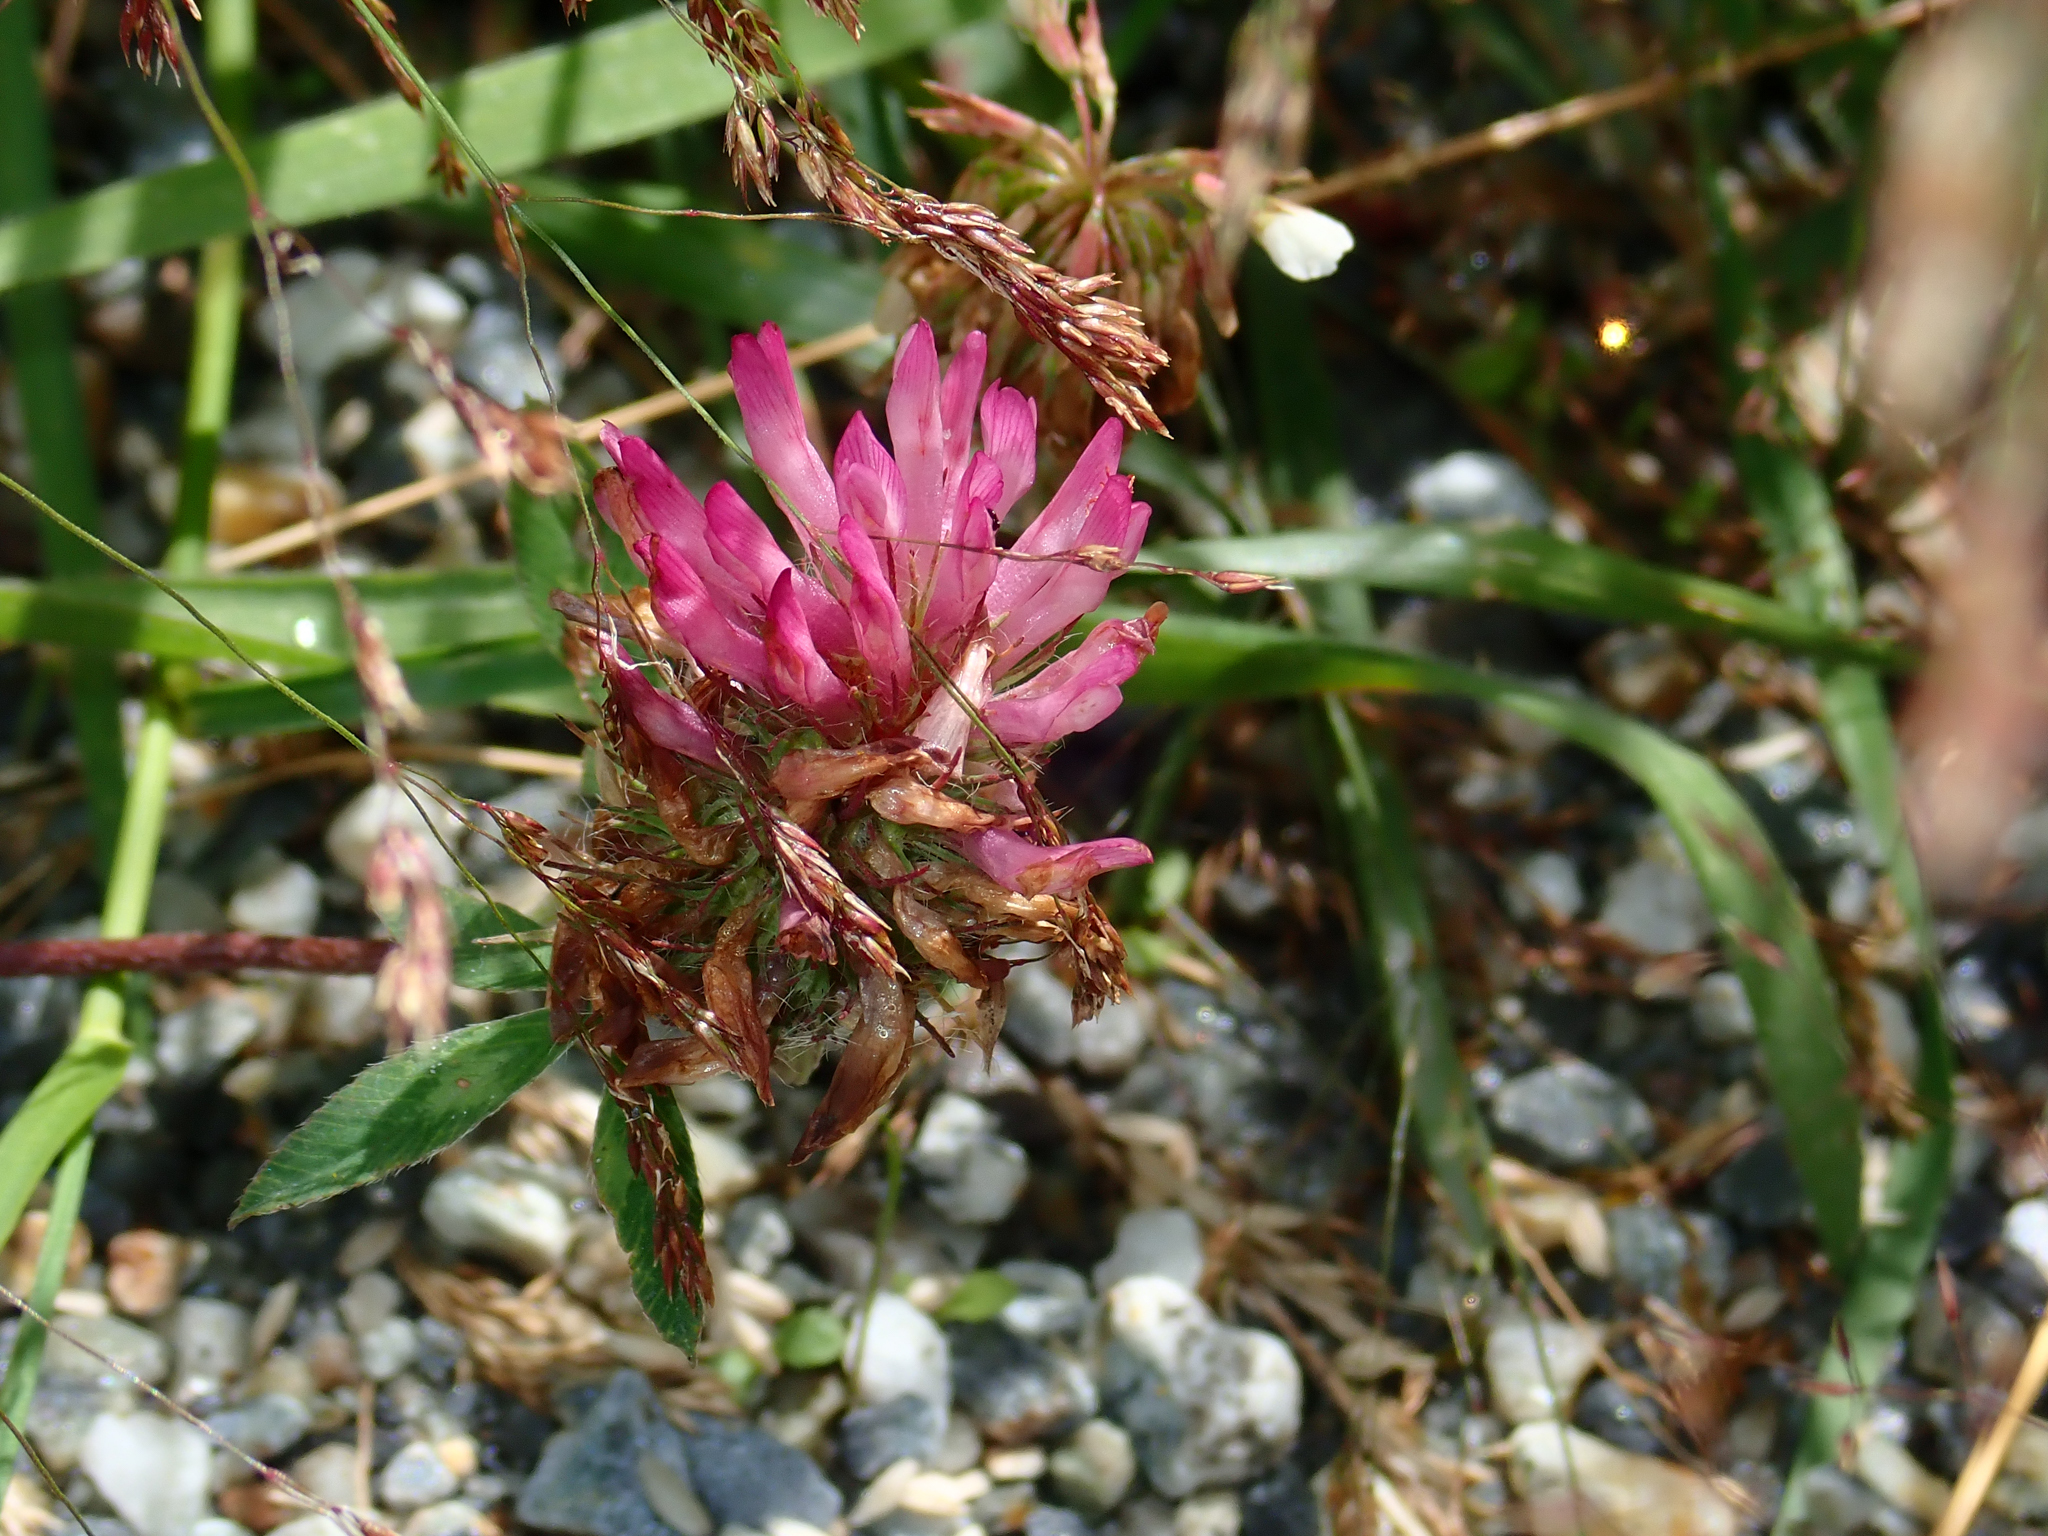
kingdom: Plantae
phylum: Tracheophyta
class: Magnoliopsida
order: Fabales
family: Fabaceae
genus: Trifolium
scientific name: Trifolium pratense
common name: Red clover
